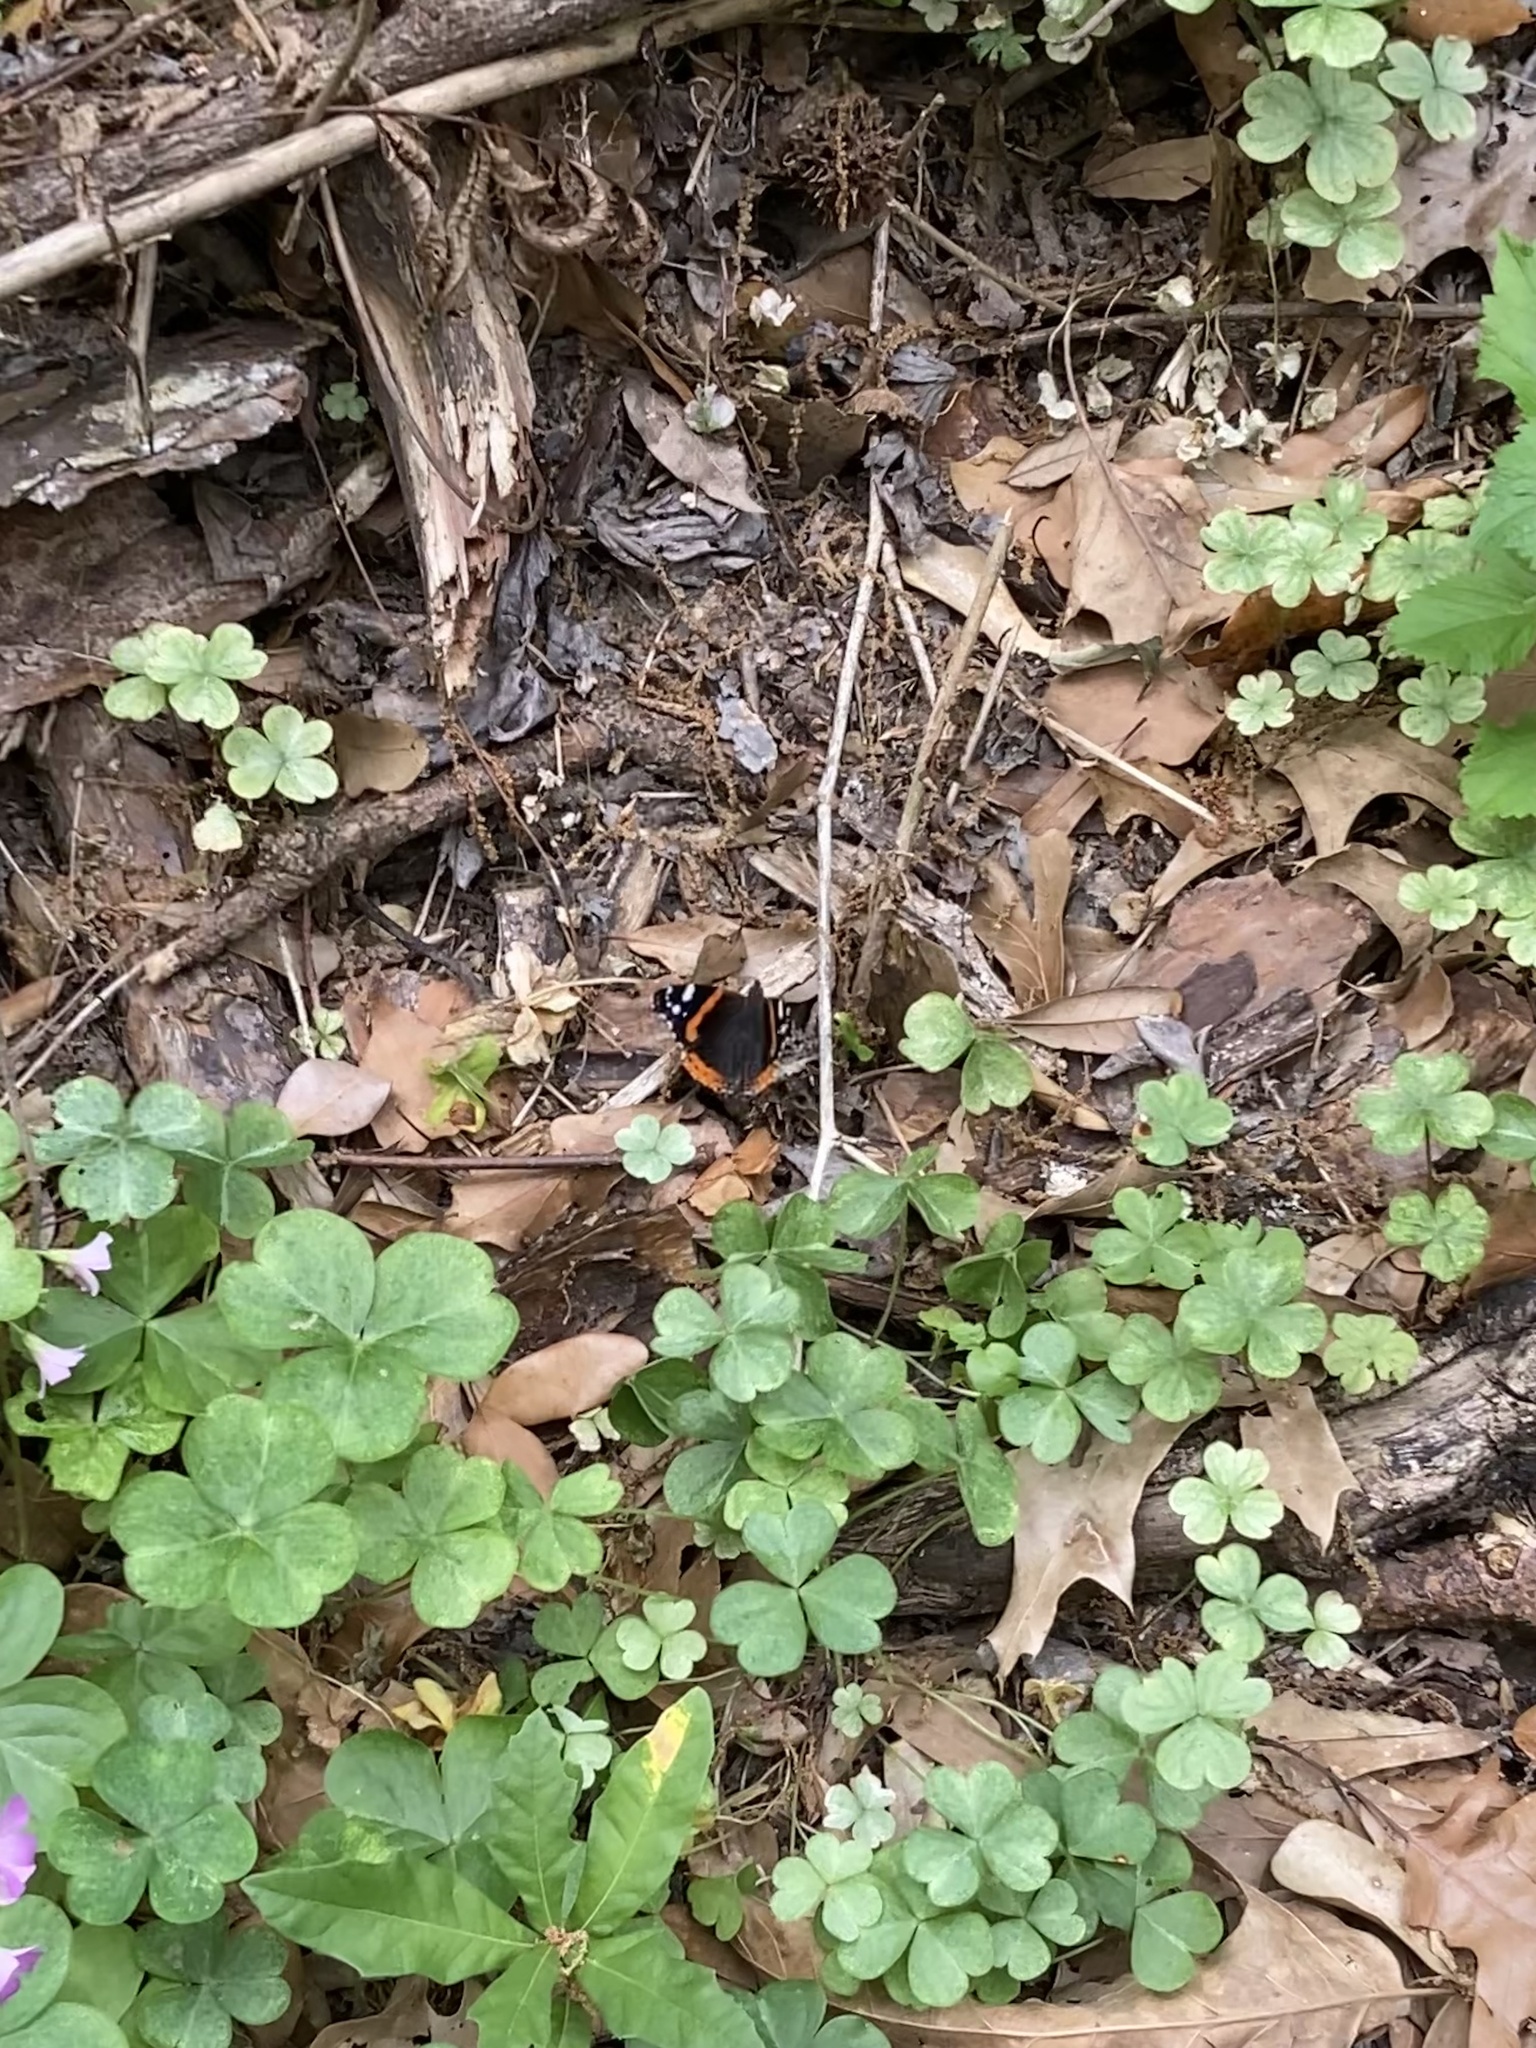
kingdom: Animalia
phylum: Arthropoda
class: Insecta
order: Lepidoptera
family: Nymphalidae
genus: Vanessa
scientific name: Vanessa atalanta
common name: Red admiral
